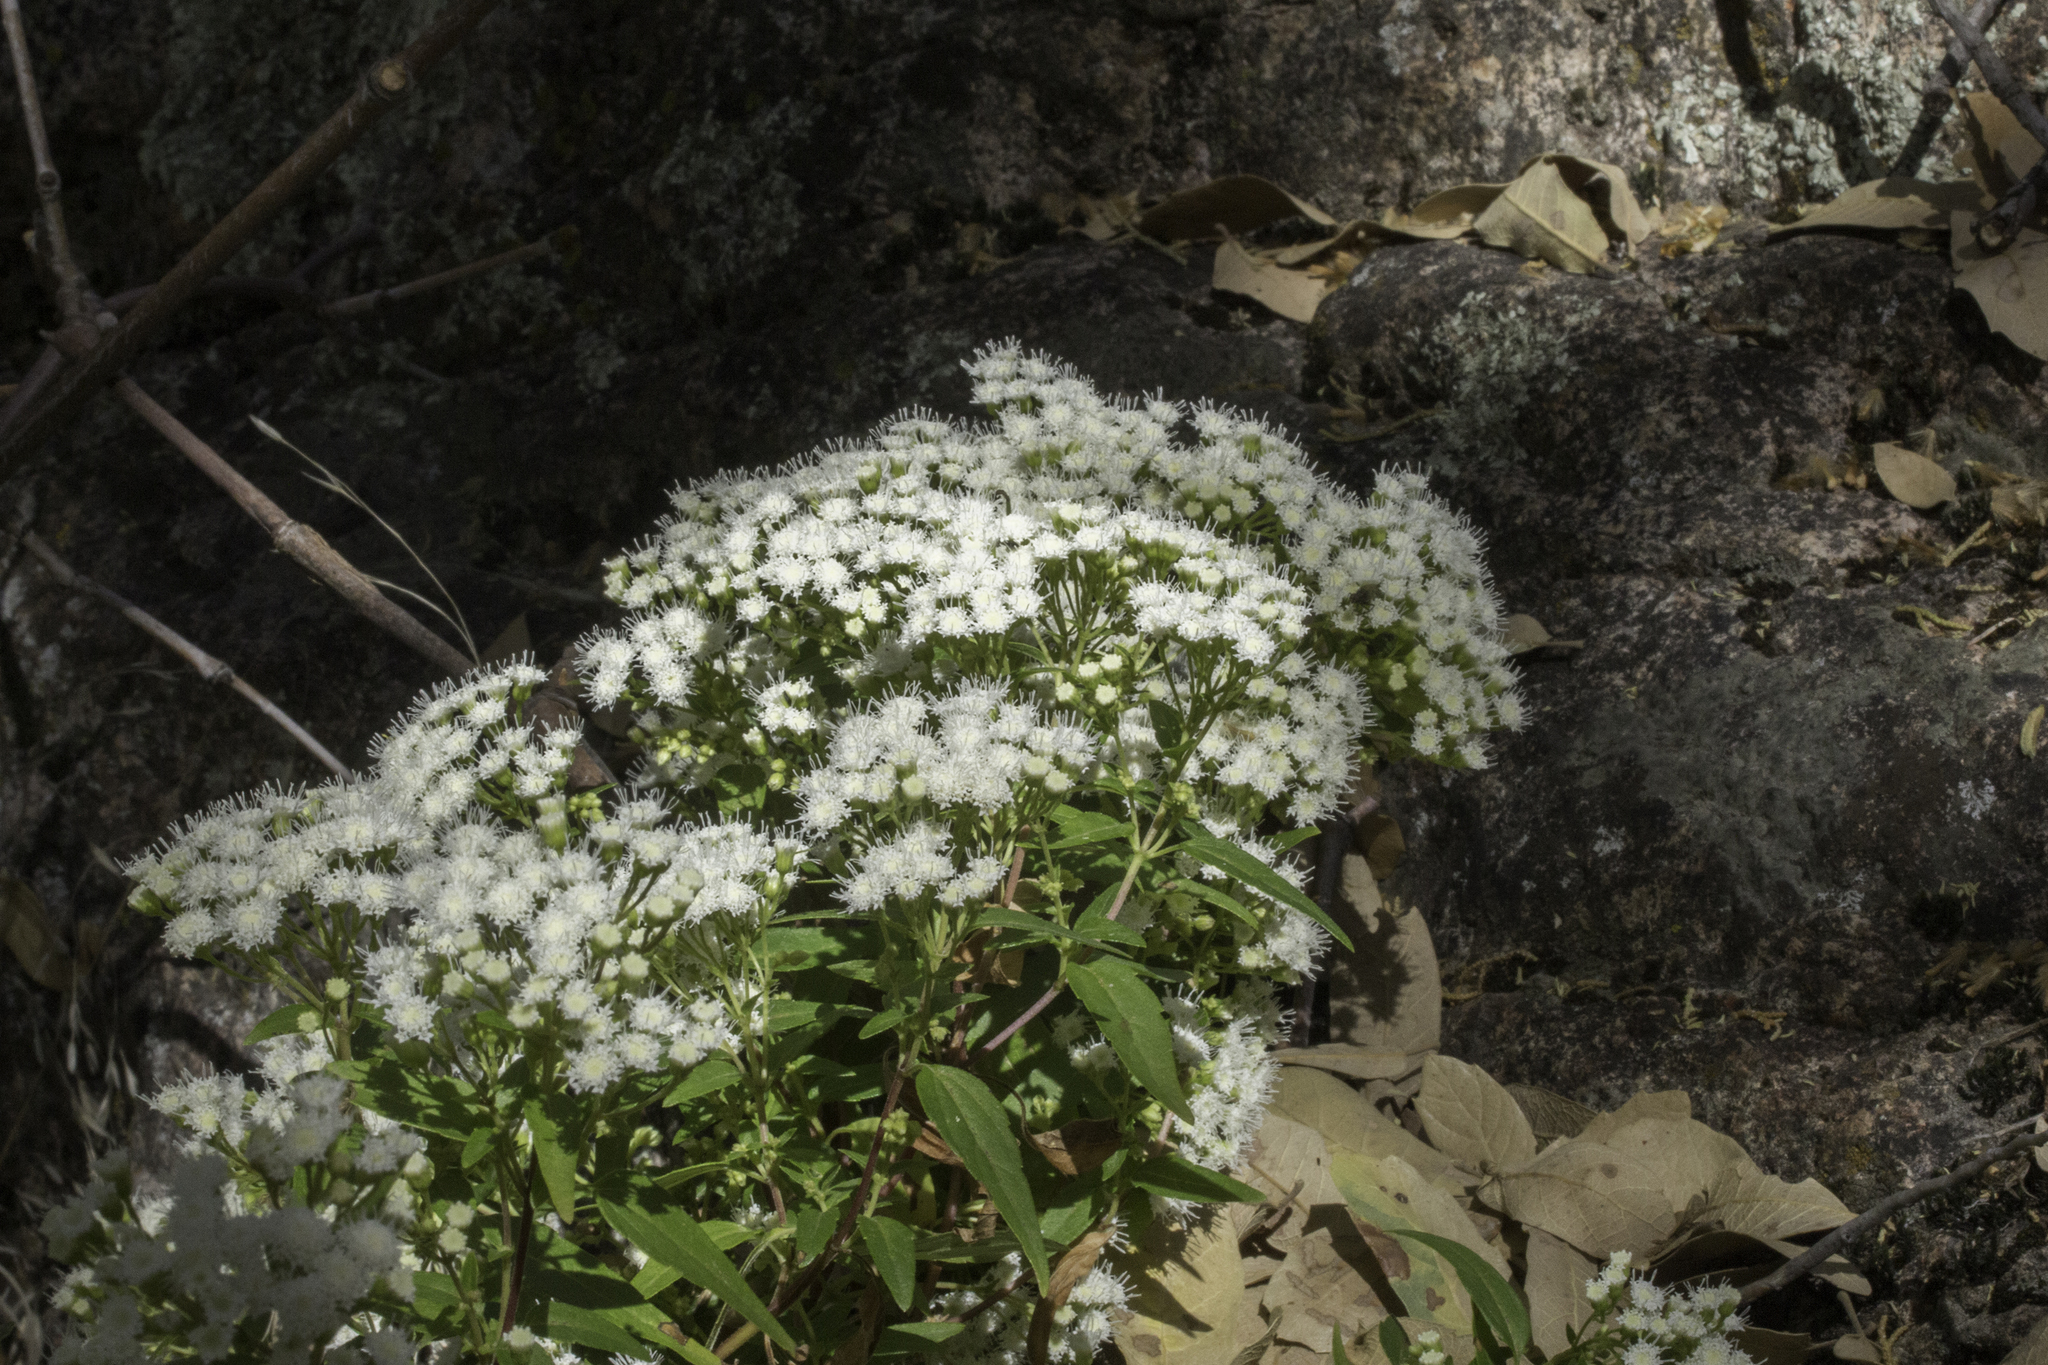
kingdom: Plantae
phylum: Tracheophyta
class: Magnoliopsida
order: Asterales
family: Asteraceae
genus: Ageratina
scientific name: Ageratina paupercula
